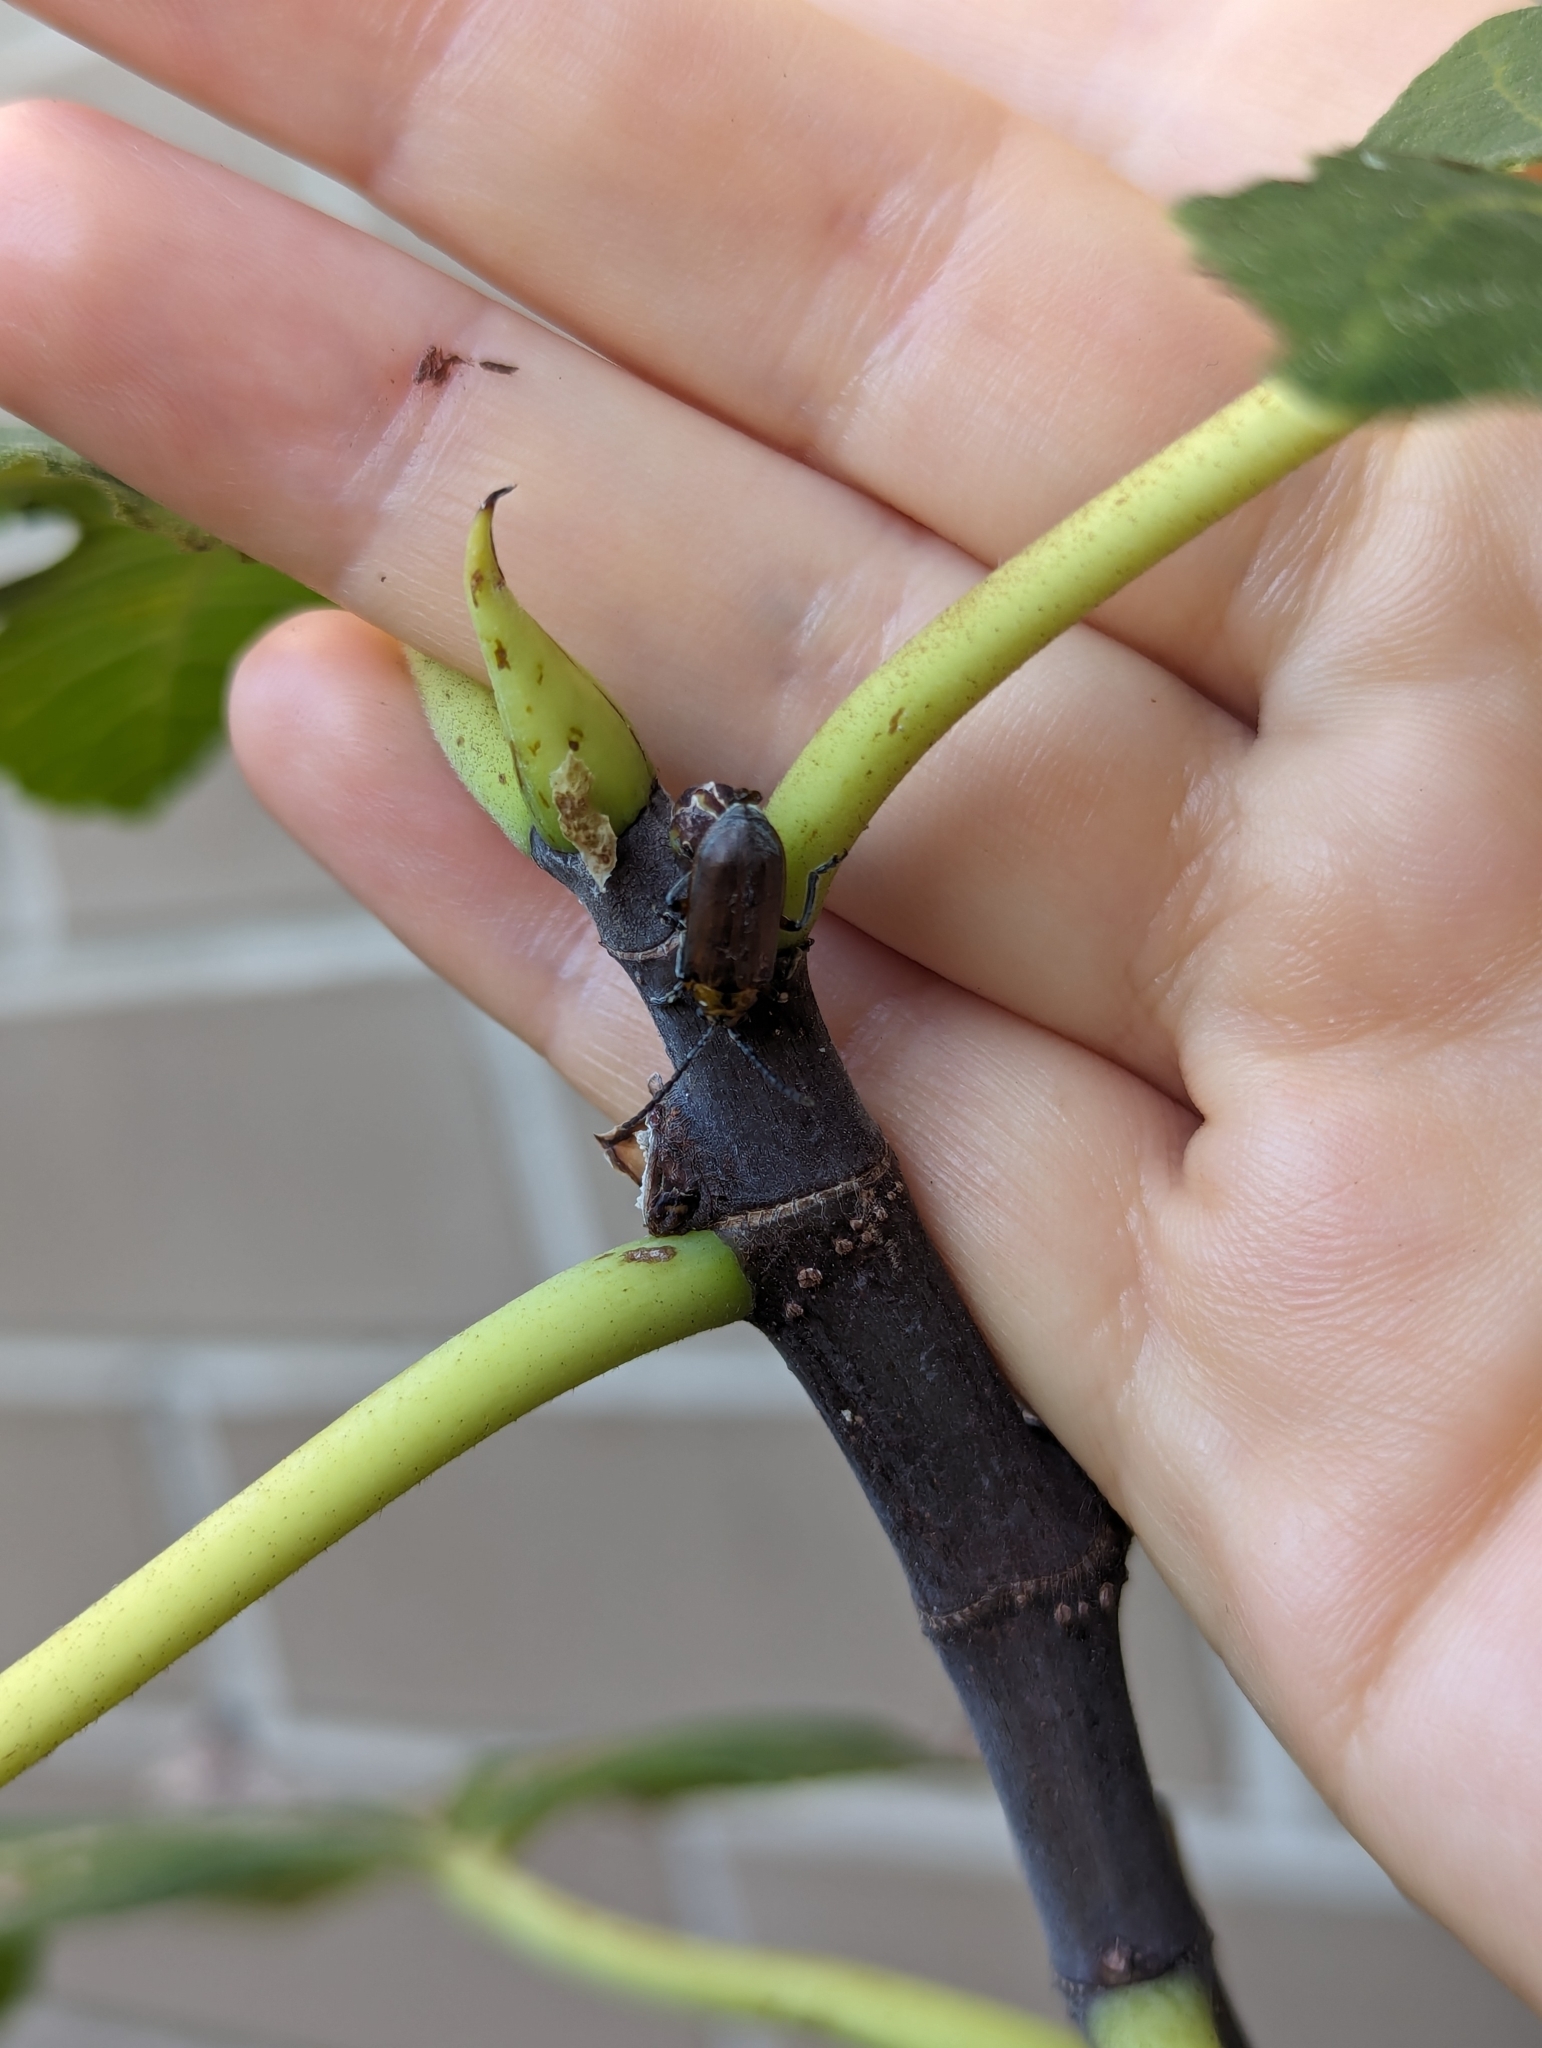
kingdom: Animalia
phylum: Arthropoda
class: Insecta
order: Coleoptera
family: Chrysomelidae
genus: Poneridia
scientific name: Poneridia semipullata
